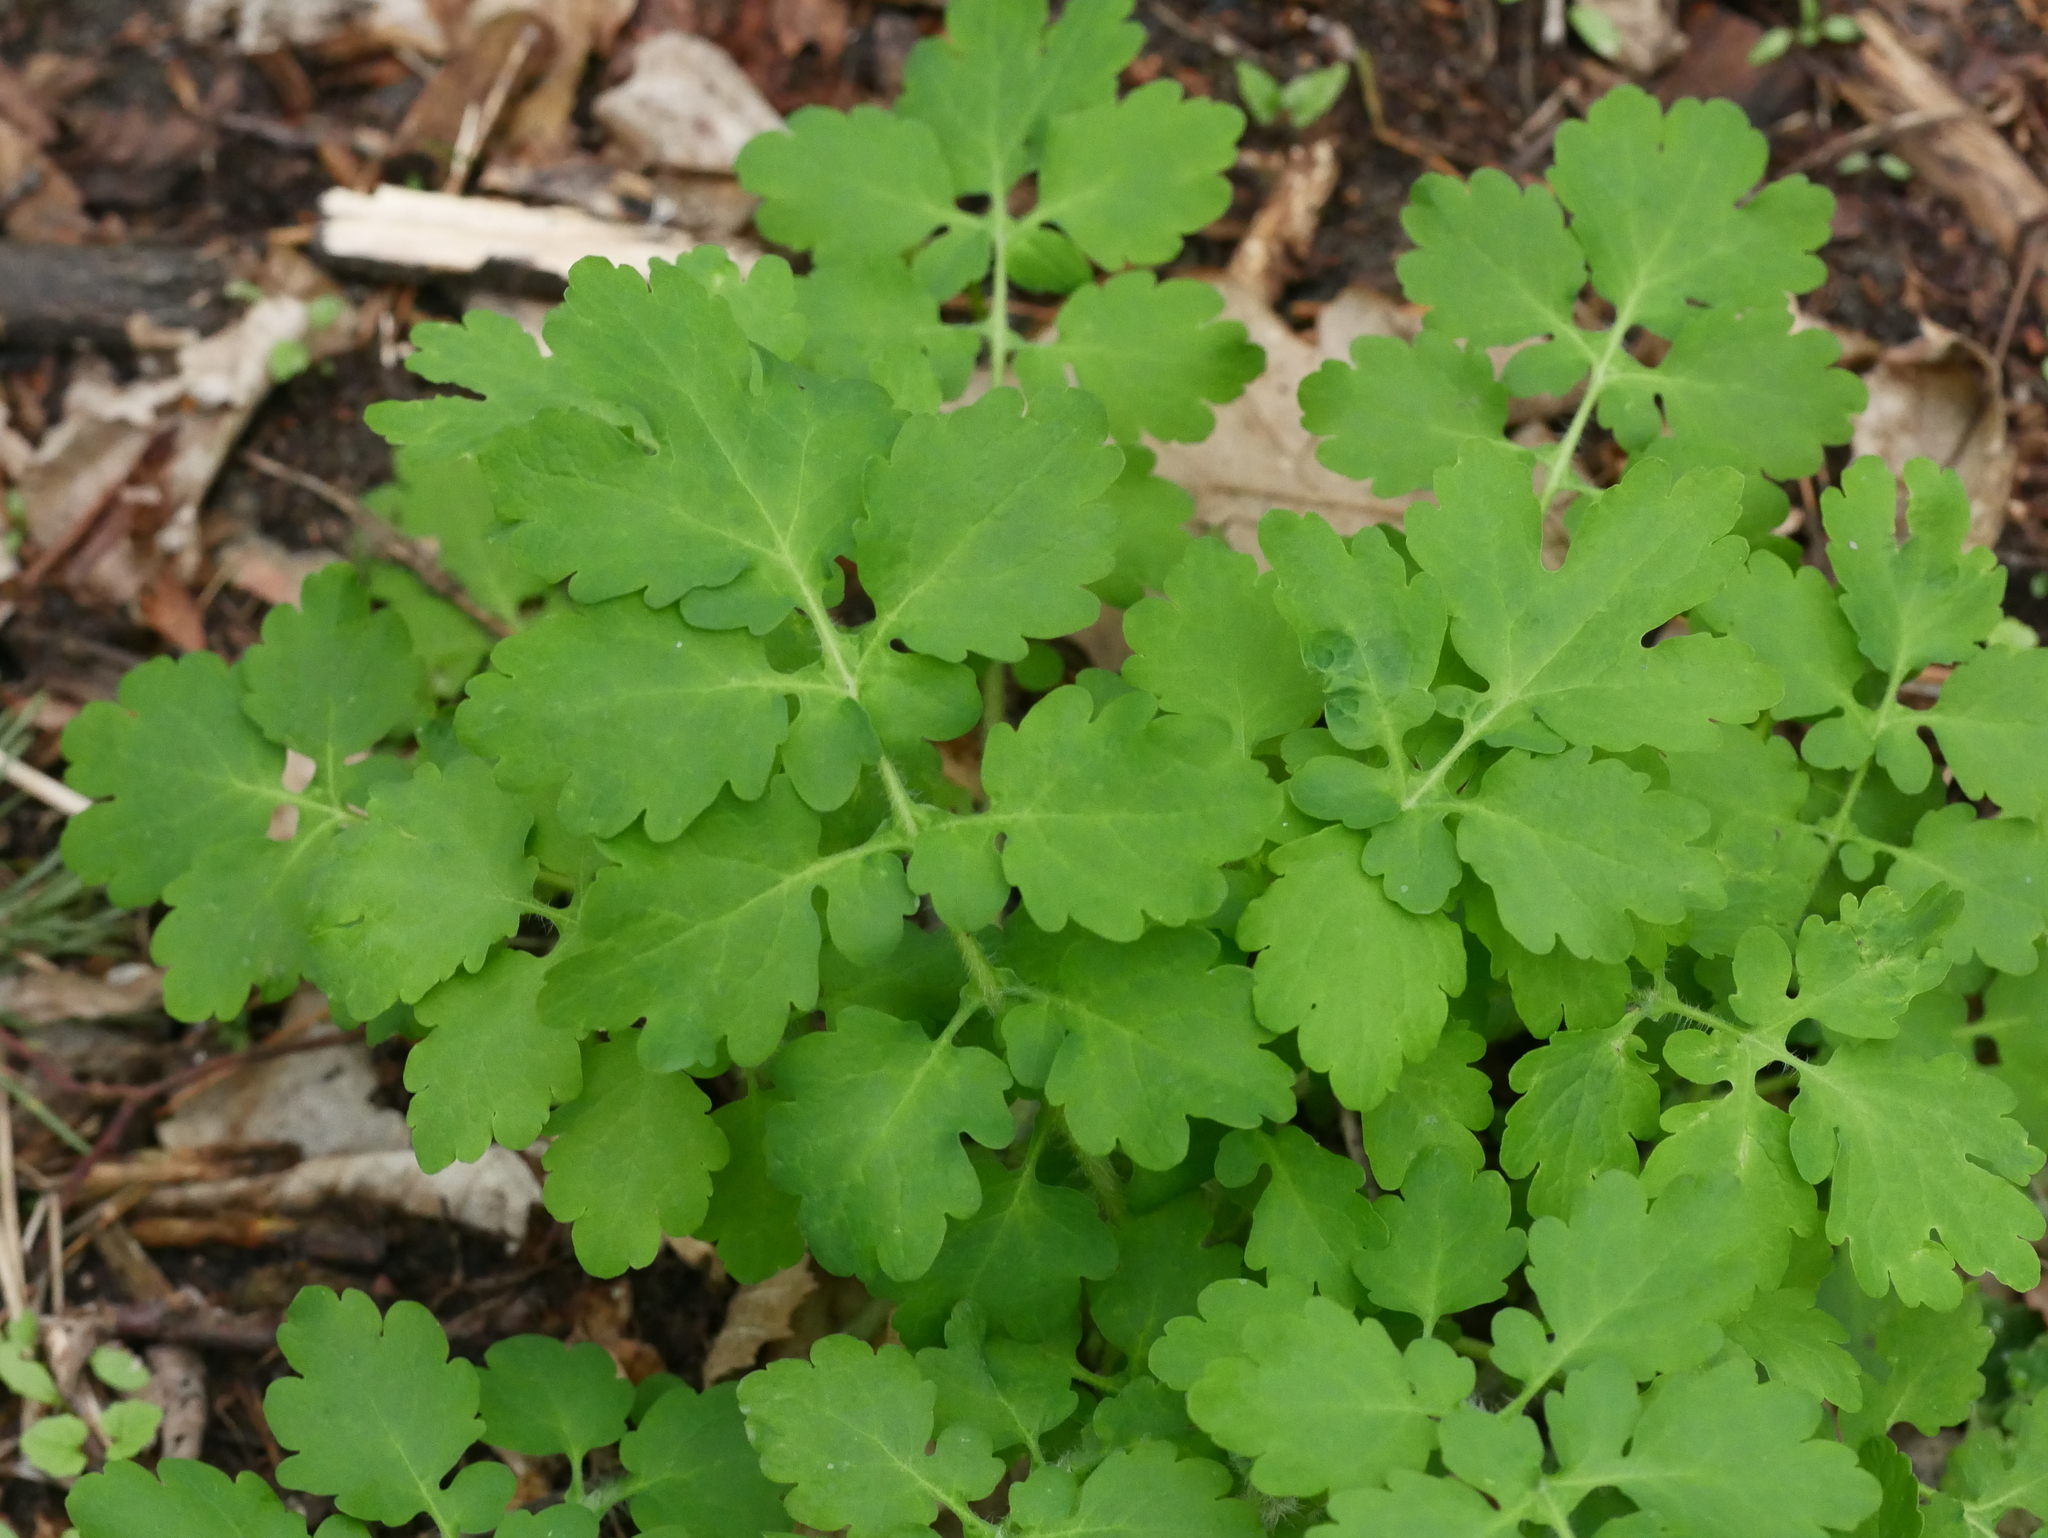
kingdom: Plantae
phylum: Tracheophyta
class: Magnoliopsida
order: Ranunculales
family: Papaveraceae
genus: Chelidonium
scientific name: Chelidonium majus
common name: Greater celandine
